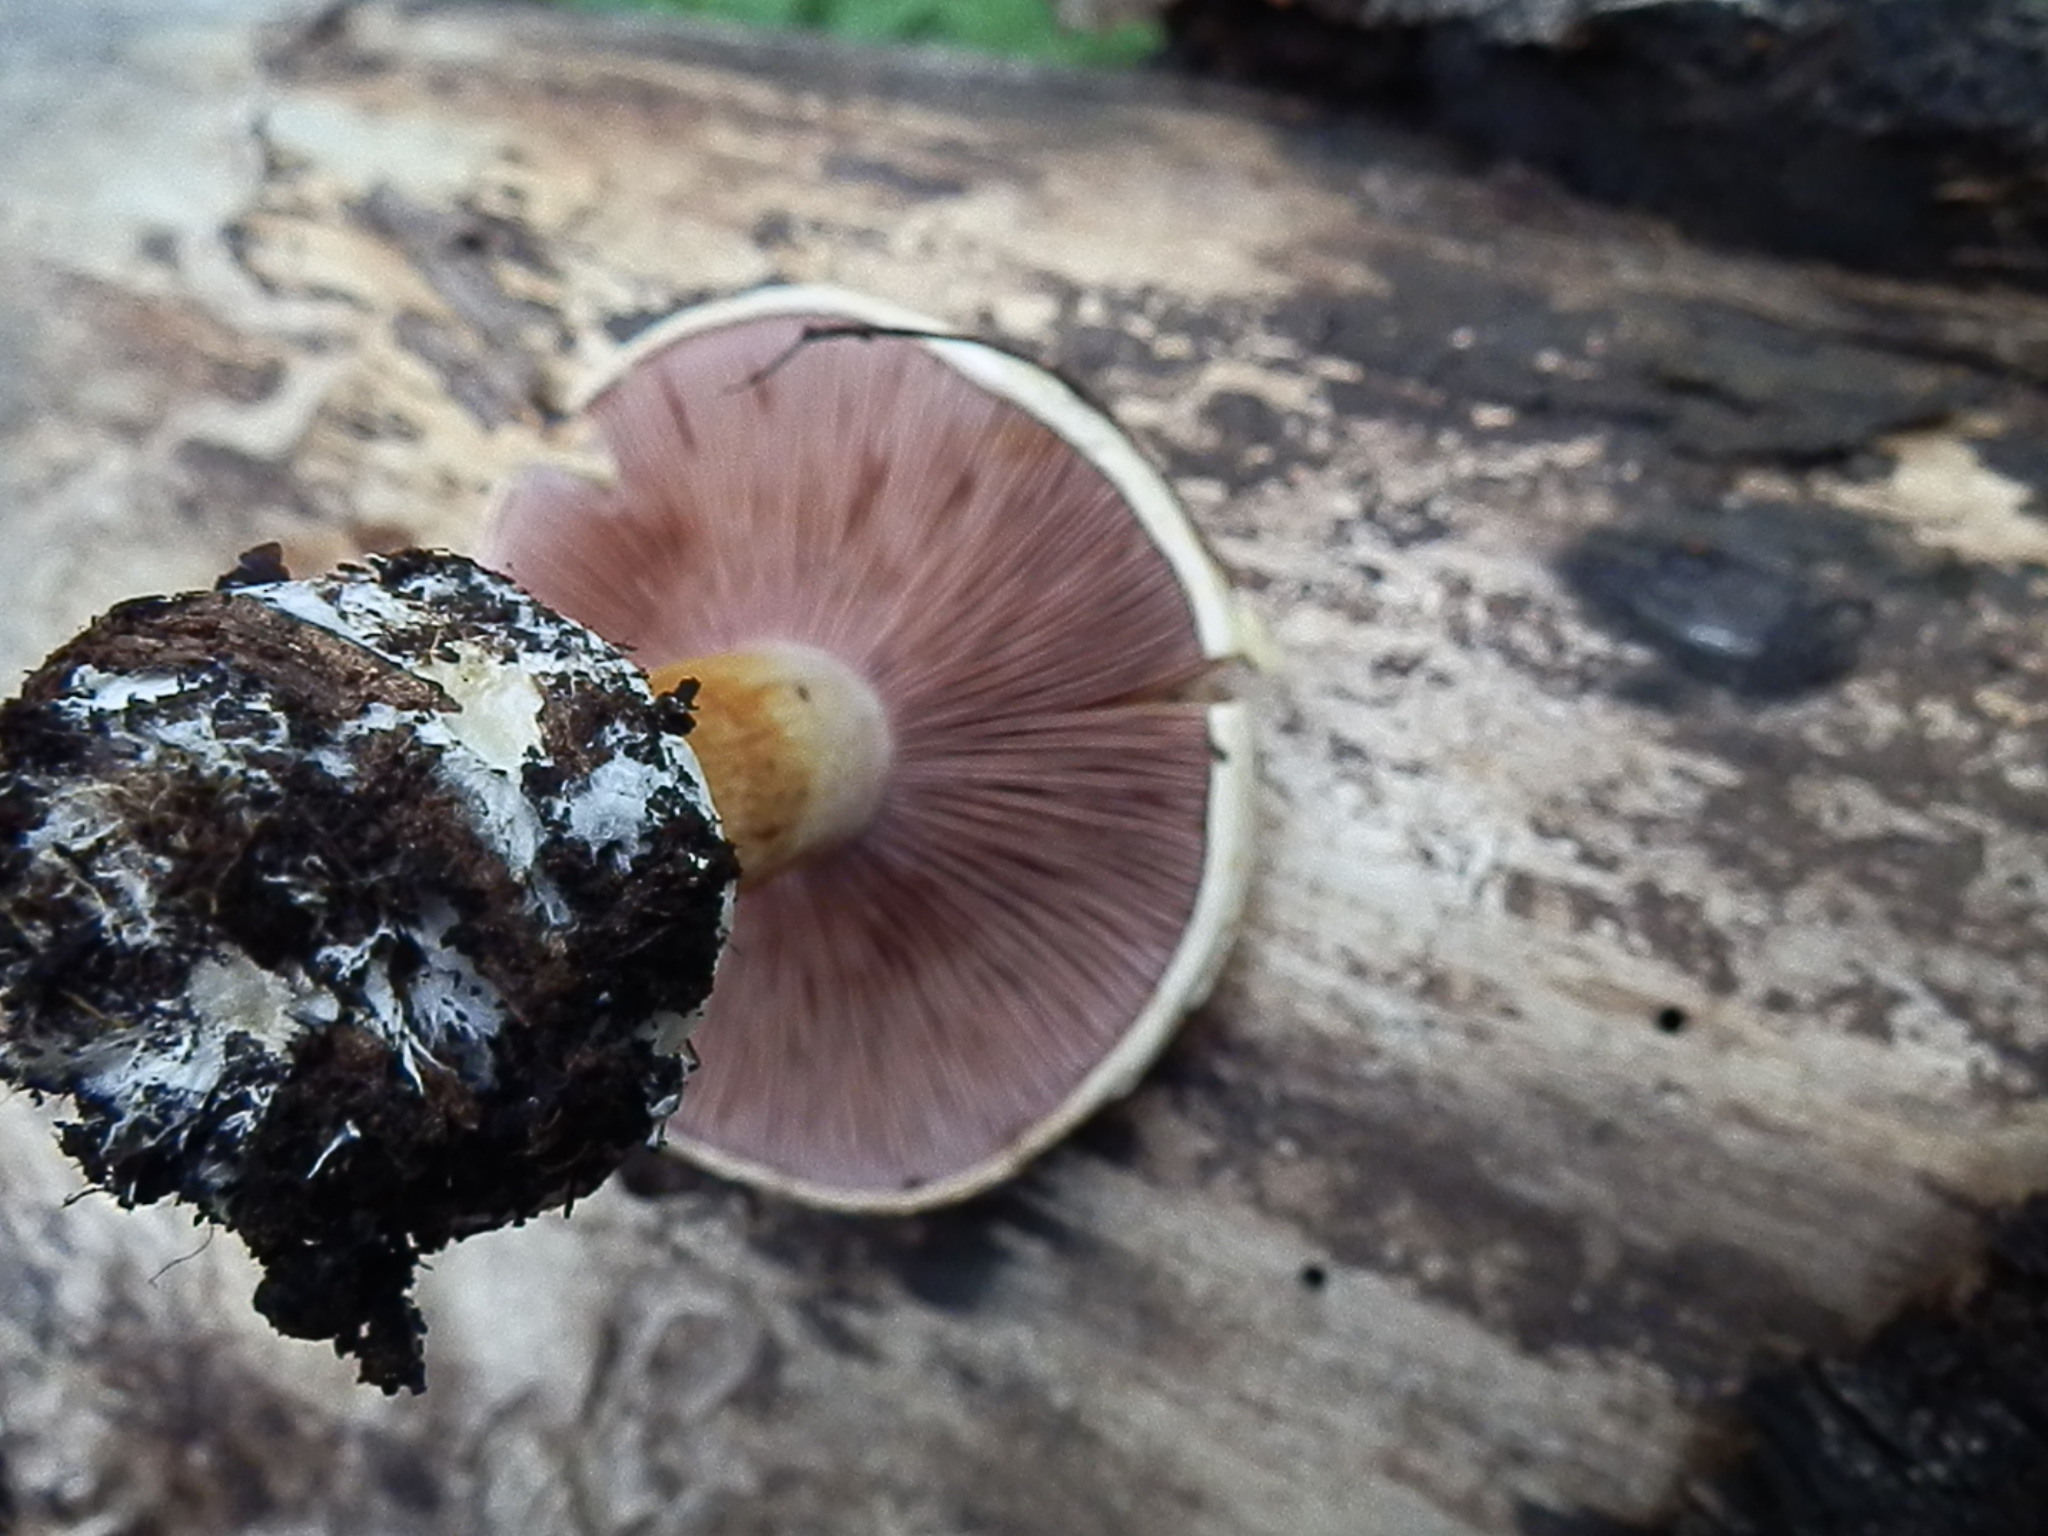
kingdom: Fungi
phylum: Basidiomycota
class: Agaricomycetes
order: Agaricales
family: Cortinariaceae
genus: Calonarius
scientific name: Calonarius calojanthinus
